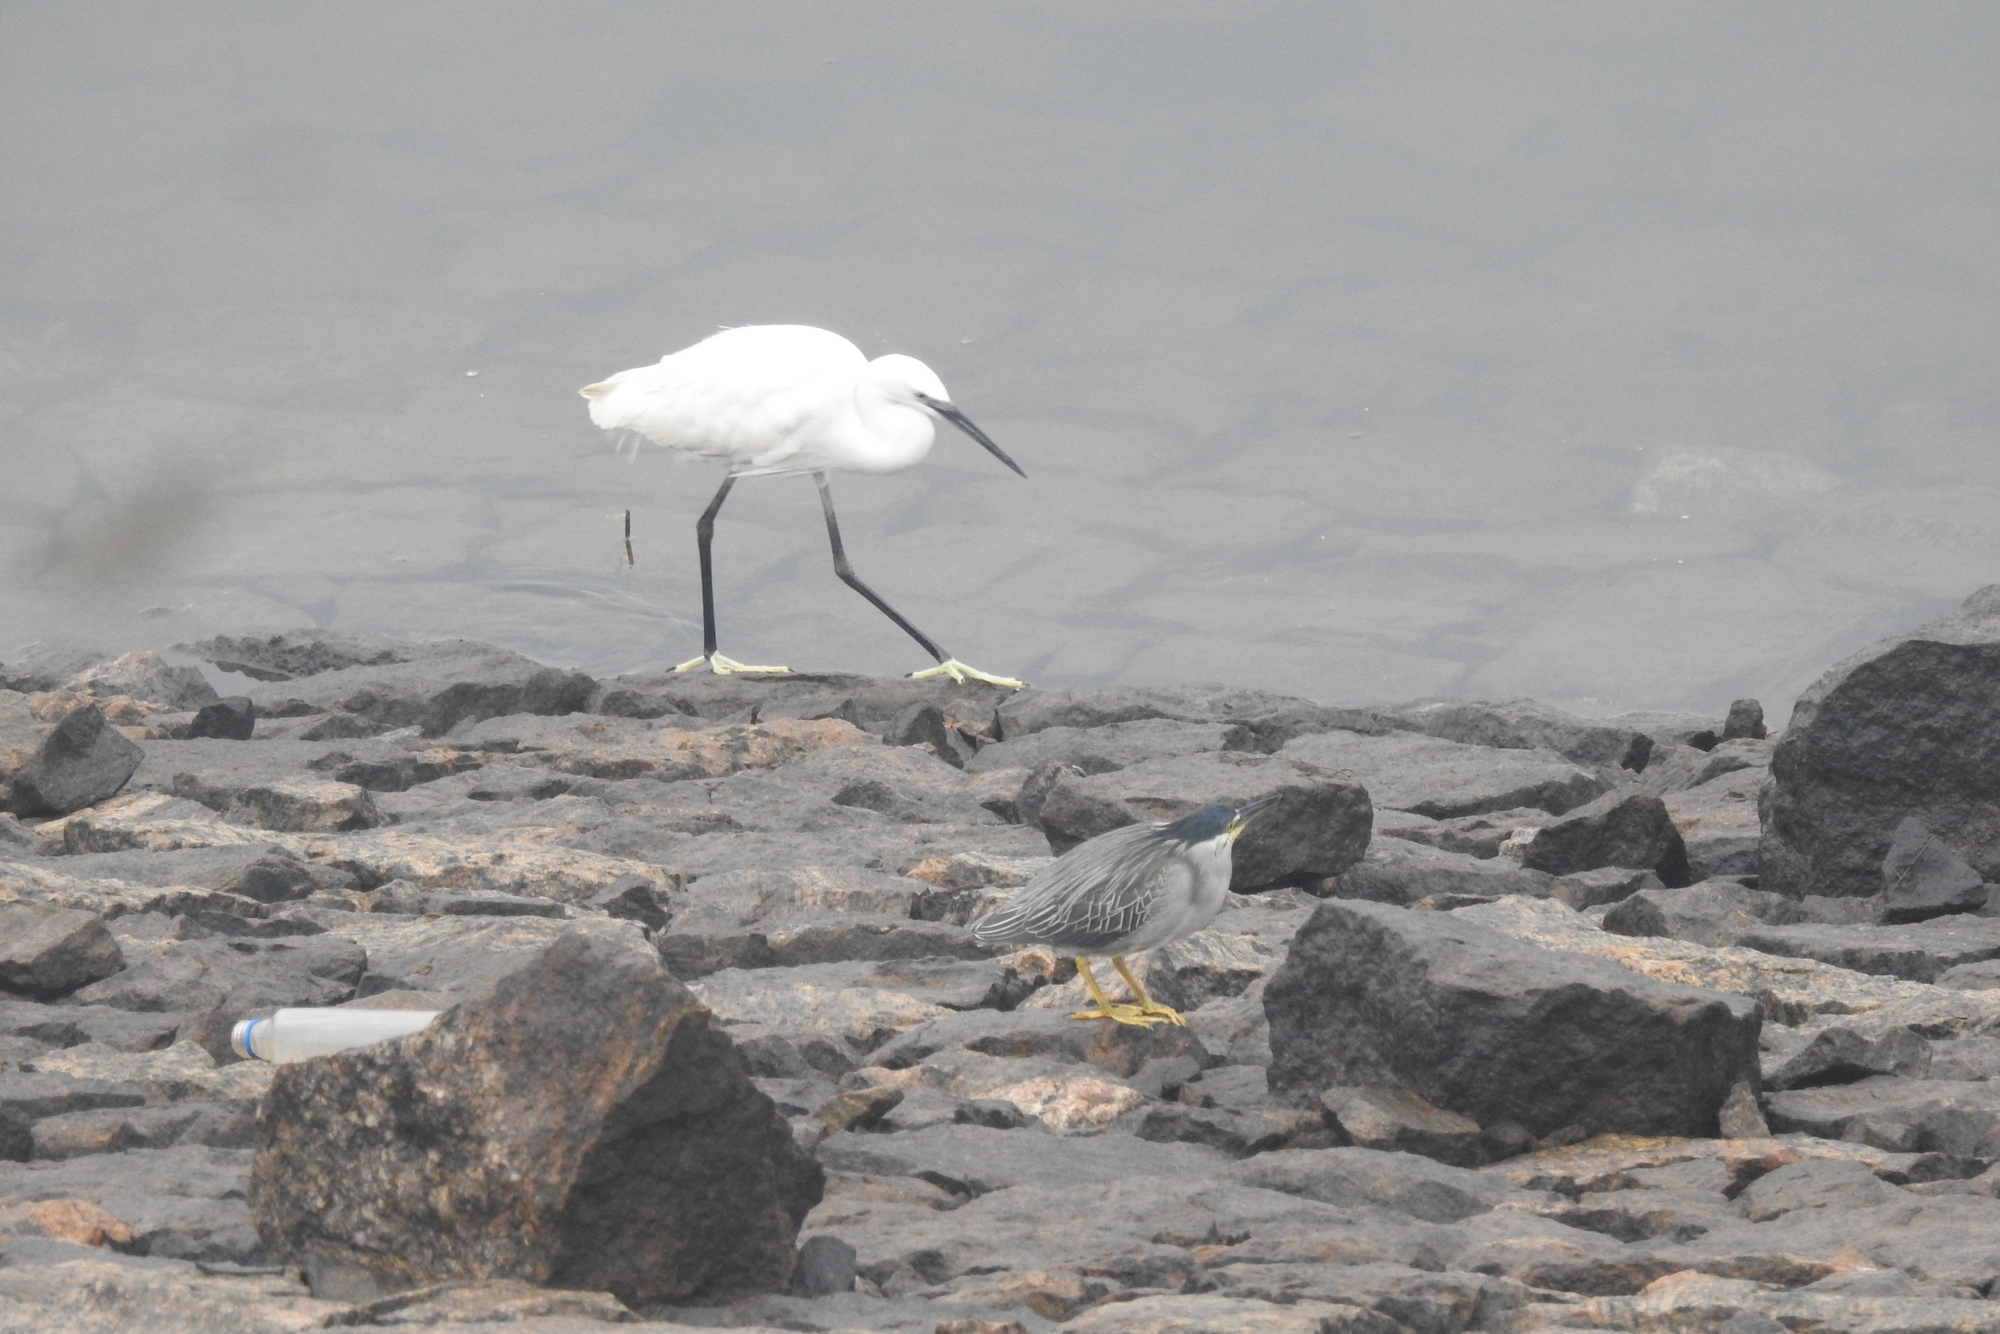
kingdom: Animalia
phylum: Chordata
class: Aves
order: Pelecaniformes
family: Ardeidae
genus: Egretta
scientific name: Egretta garzetta
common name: Little egret
